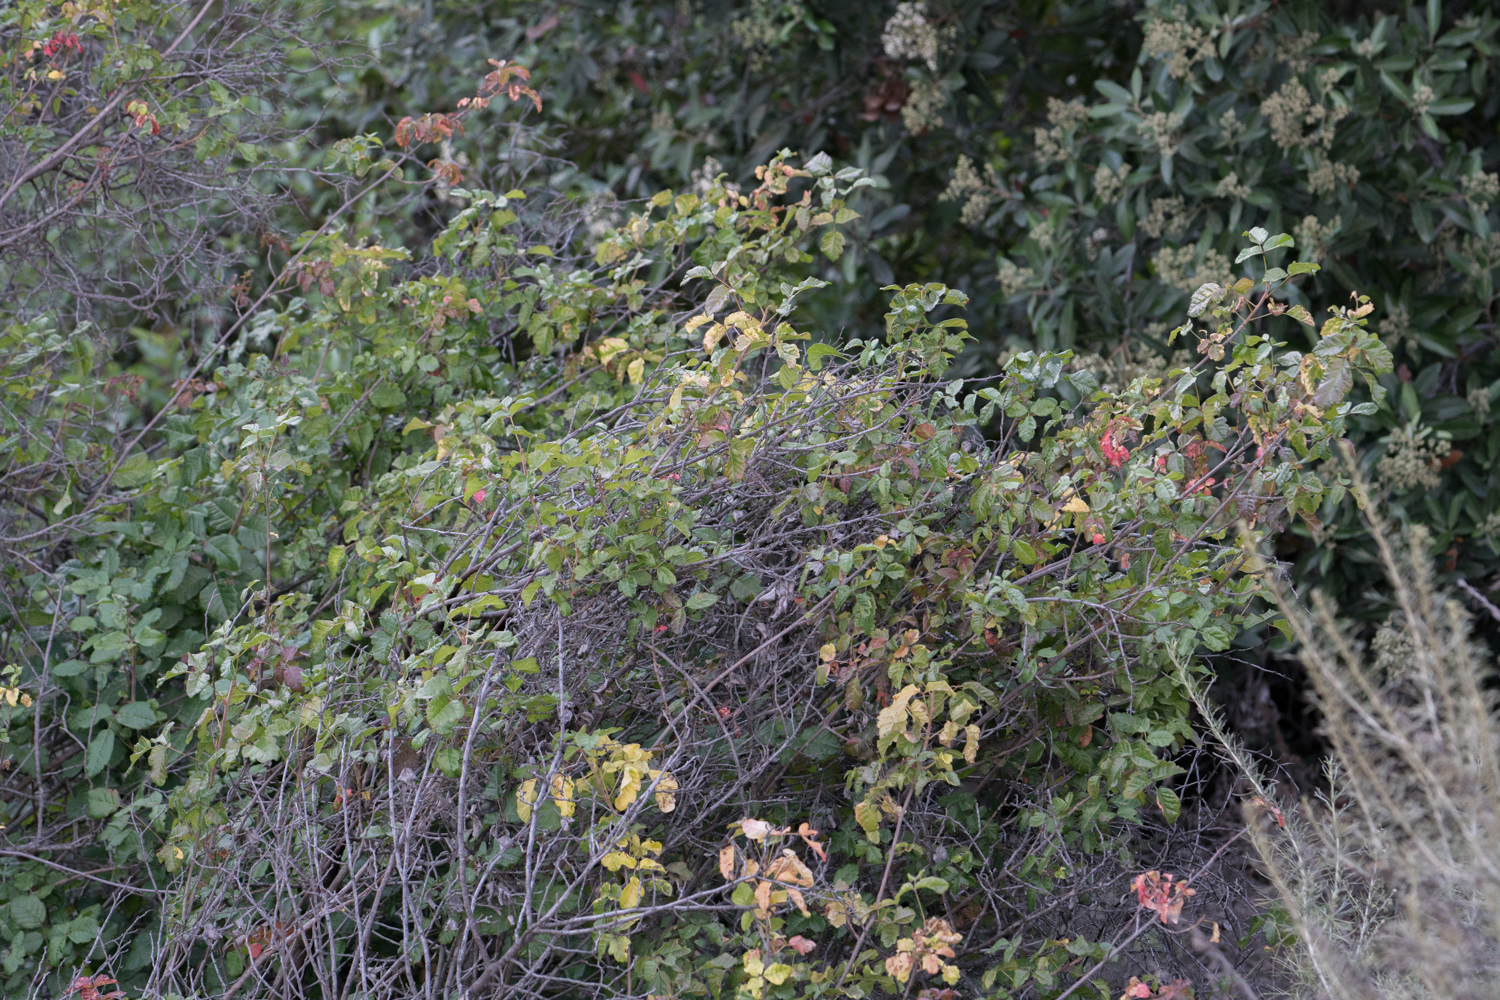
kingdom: Plantae
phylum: Tracheophyta
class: Magnoliopsida
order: Sapindales
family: Anacardiaceae
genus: Toxicodendron
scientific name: Toxicodendron diversilobum
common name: Pacific poison-oak
